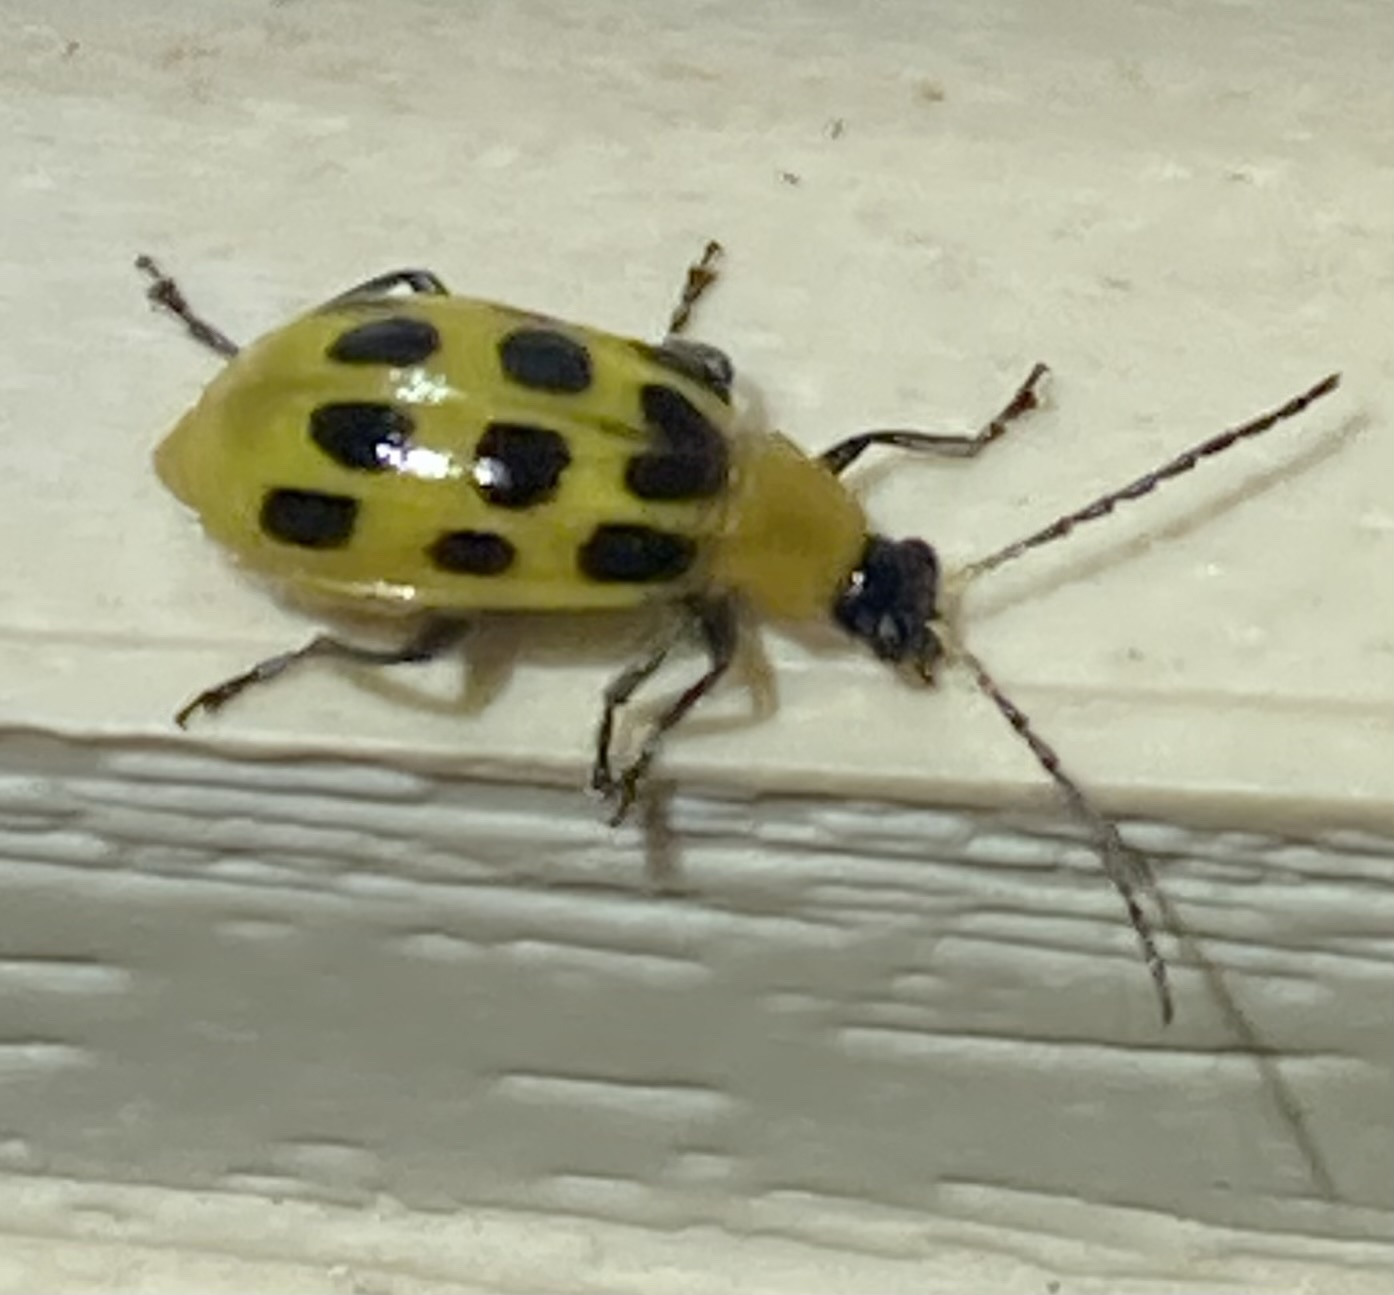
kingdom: Animalia
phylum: Arthropoda
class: Insecta
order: Coleoptera
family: Chrysomelidae
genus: Diabrotica
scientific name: Diabrotica undecimpunctata
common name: Spotted cucumber beetle
